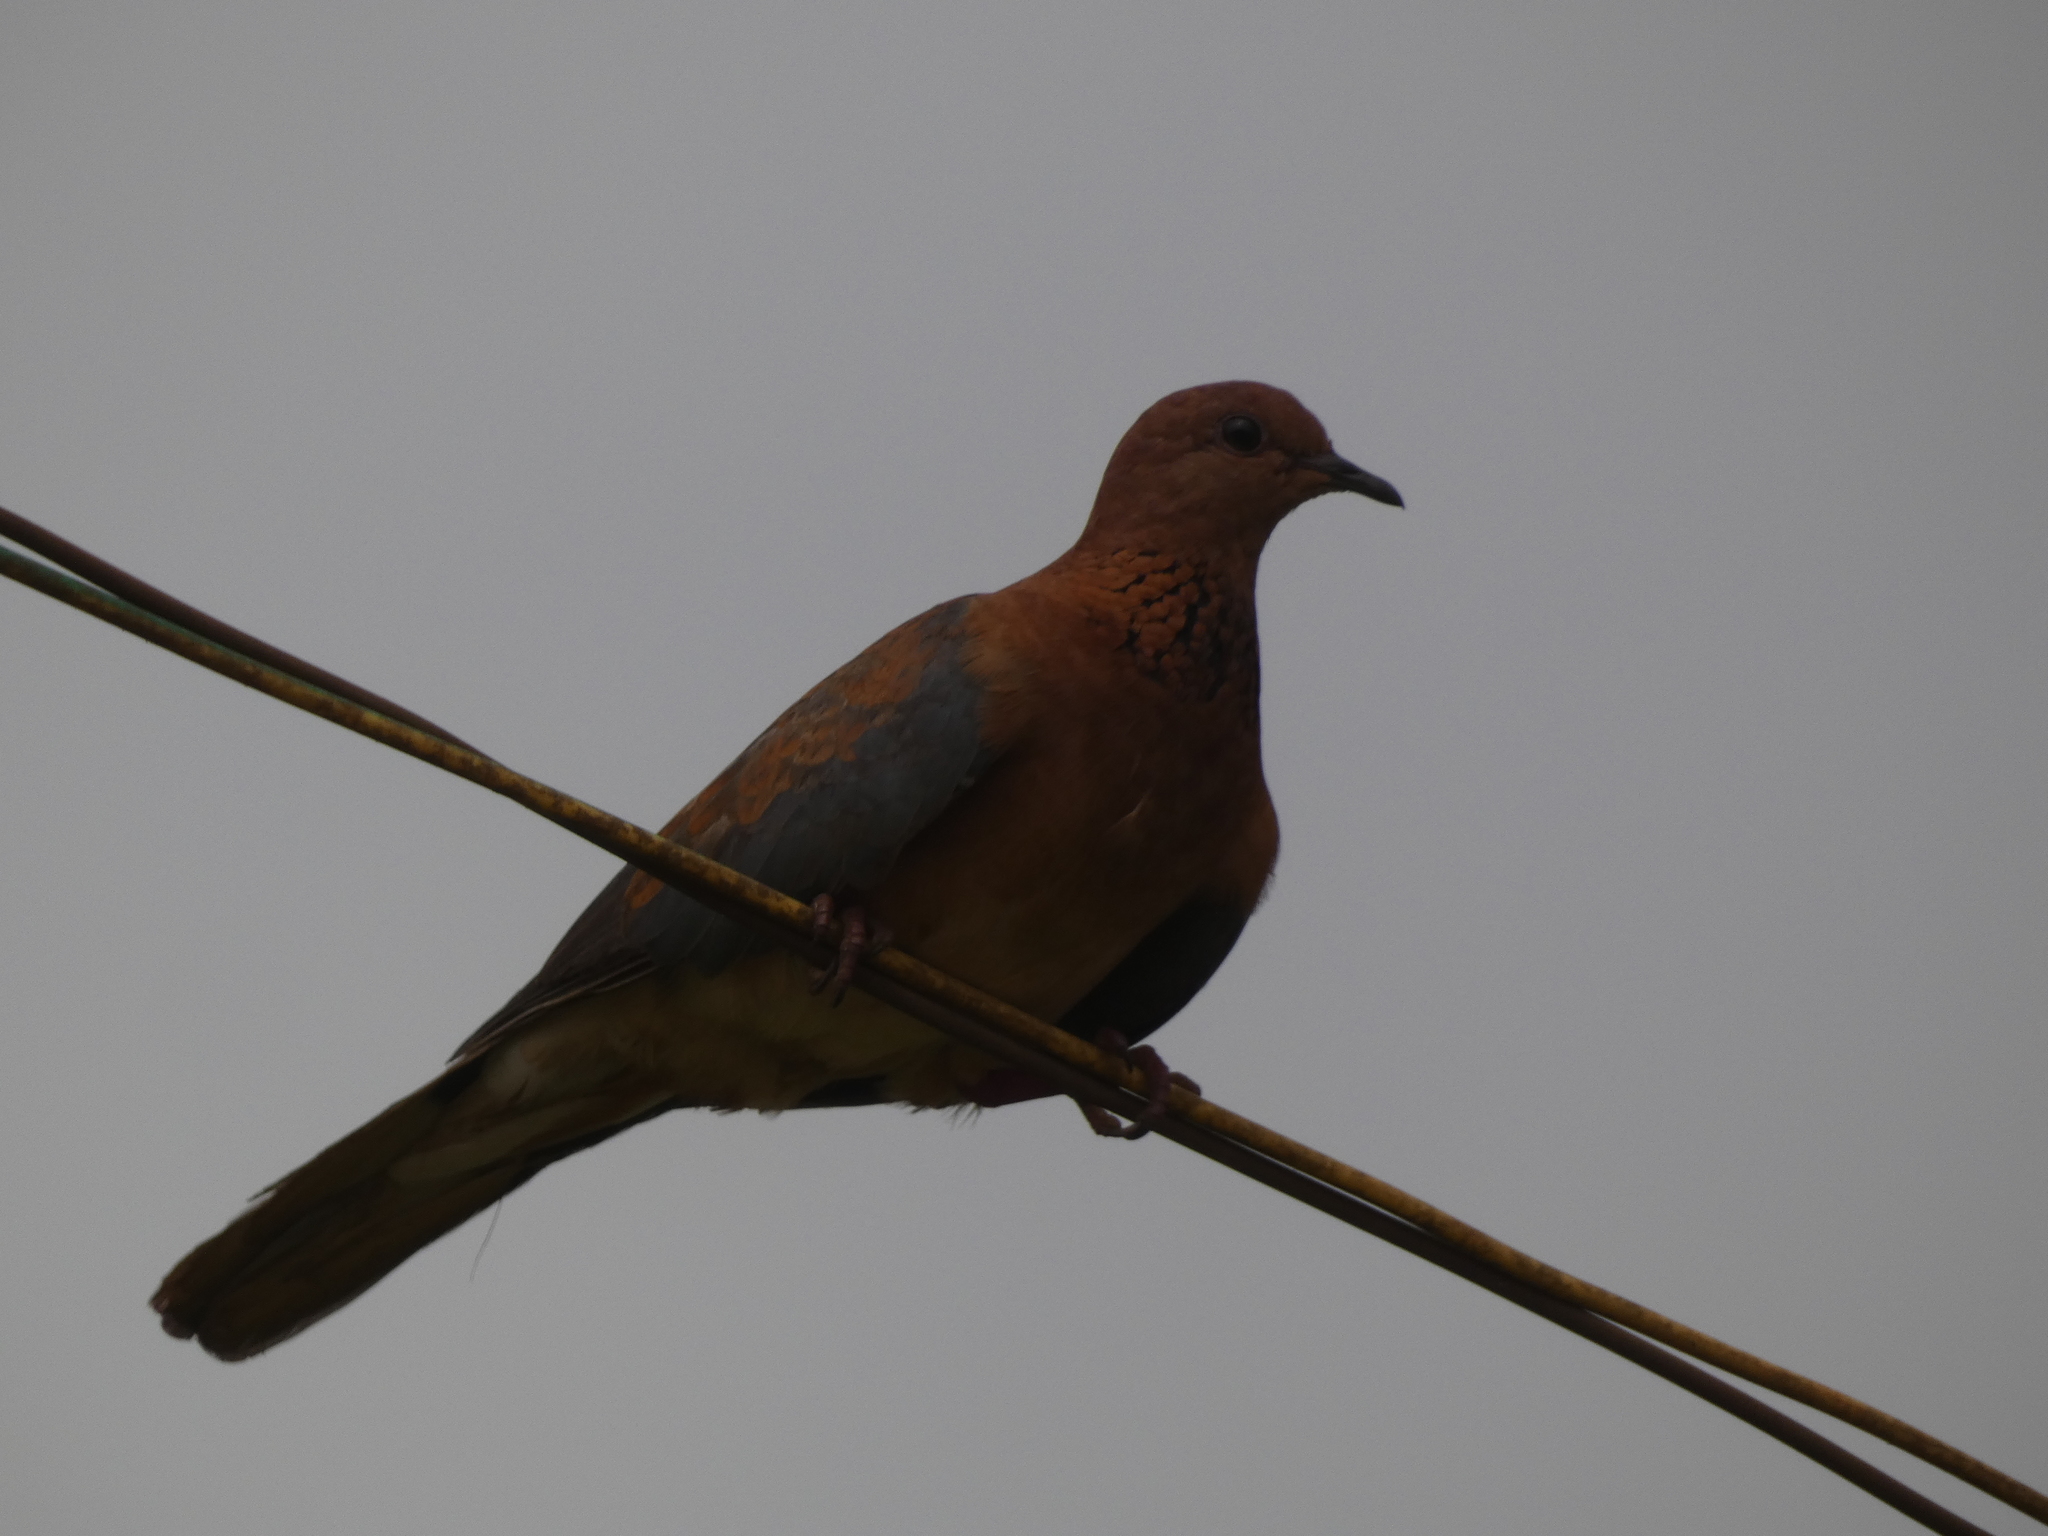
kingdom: Animalia
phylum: Chordata
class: Aves
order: Columbiformes
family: Columbidae
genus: Spilopelia
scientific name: Spilopelia senegalensis
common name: Laughing dove
